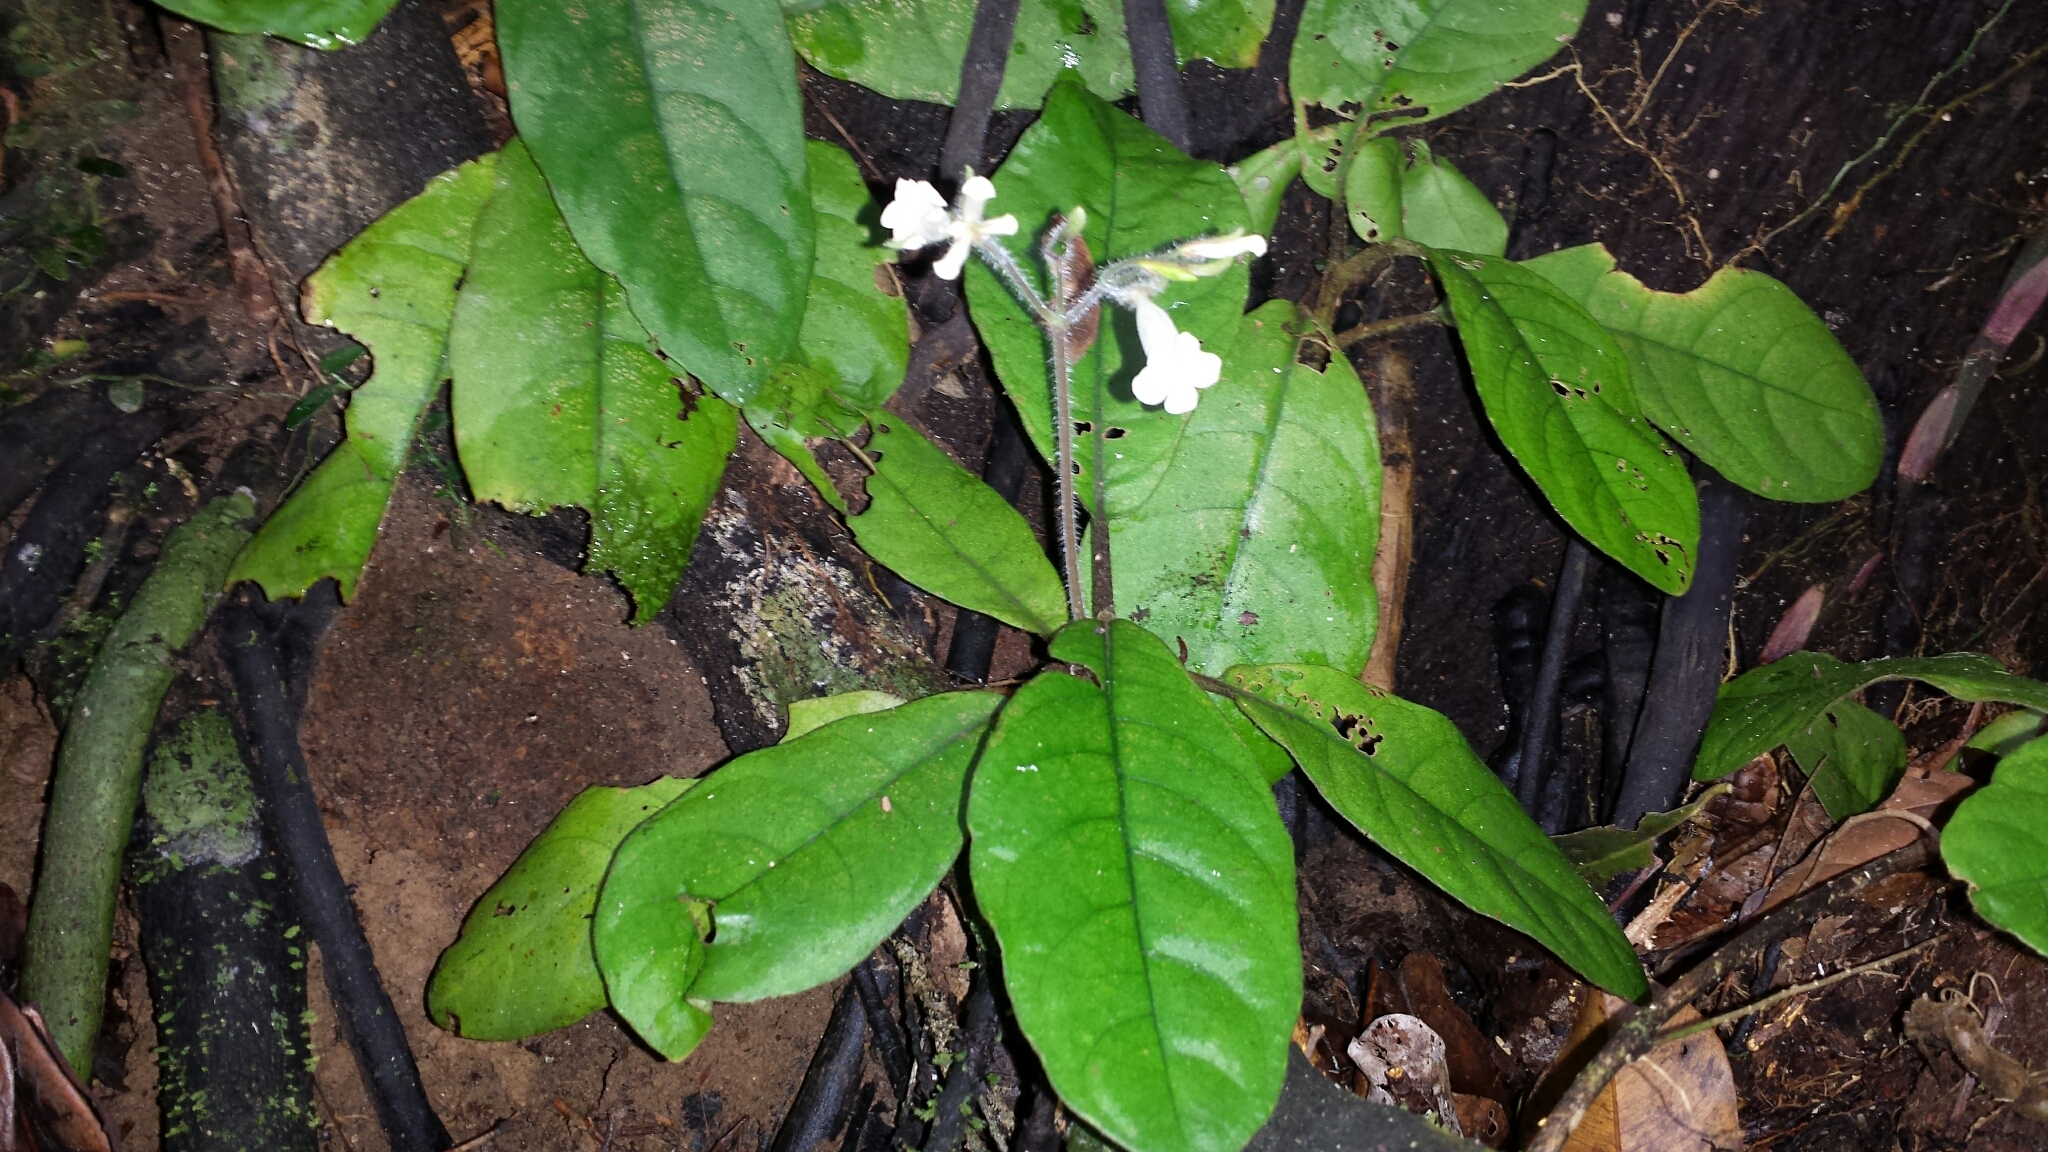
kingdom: Plantae
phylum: Tracheophyta
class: Magnoliopsida
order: Lamiales
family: Acanthaceae
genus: Podorungia
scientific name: Podorungia gesnerioides
